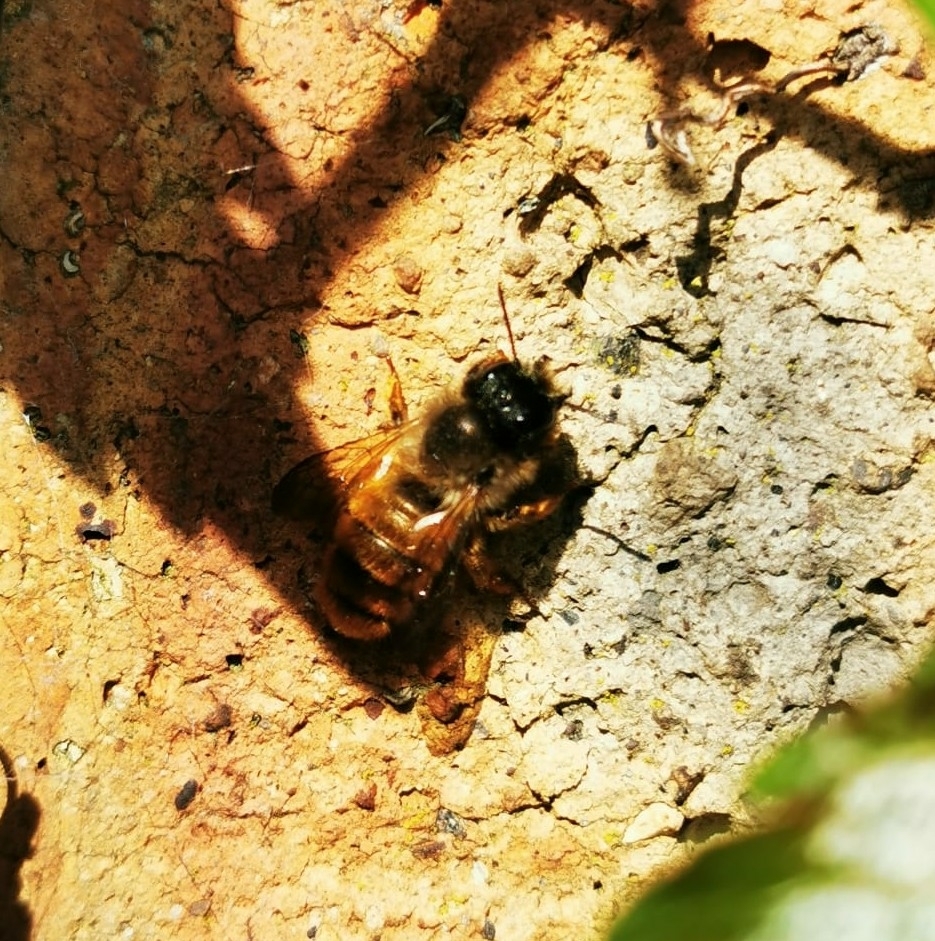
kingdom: Animalia
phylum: Arthropoda
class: Insecta
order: Hymenoptera
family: Megachilidae
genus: Osmia
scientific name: Osmia bicornis
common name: Red mason bee
